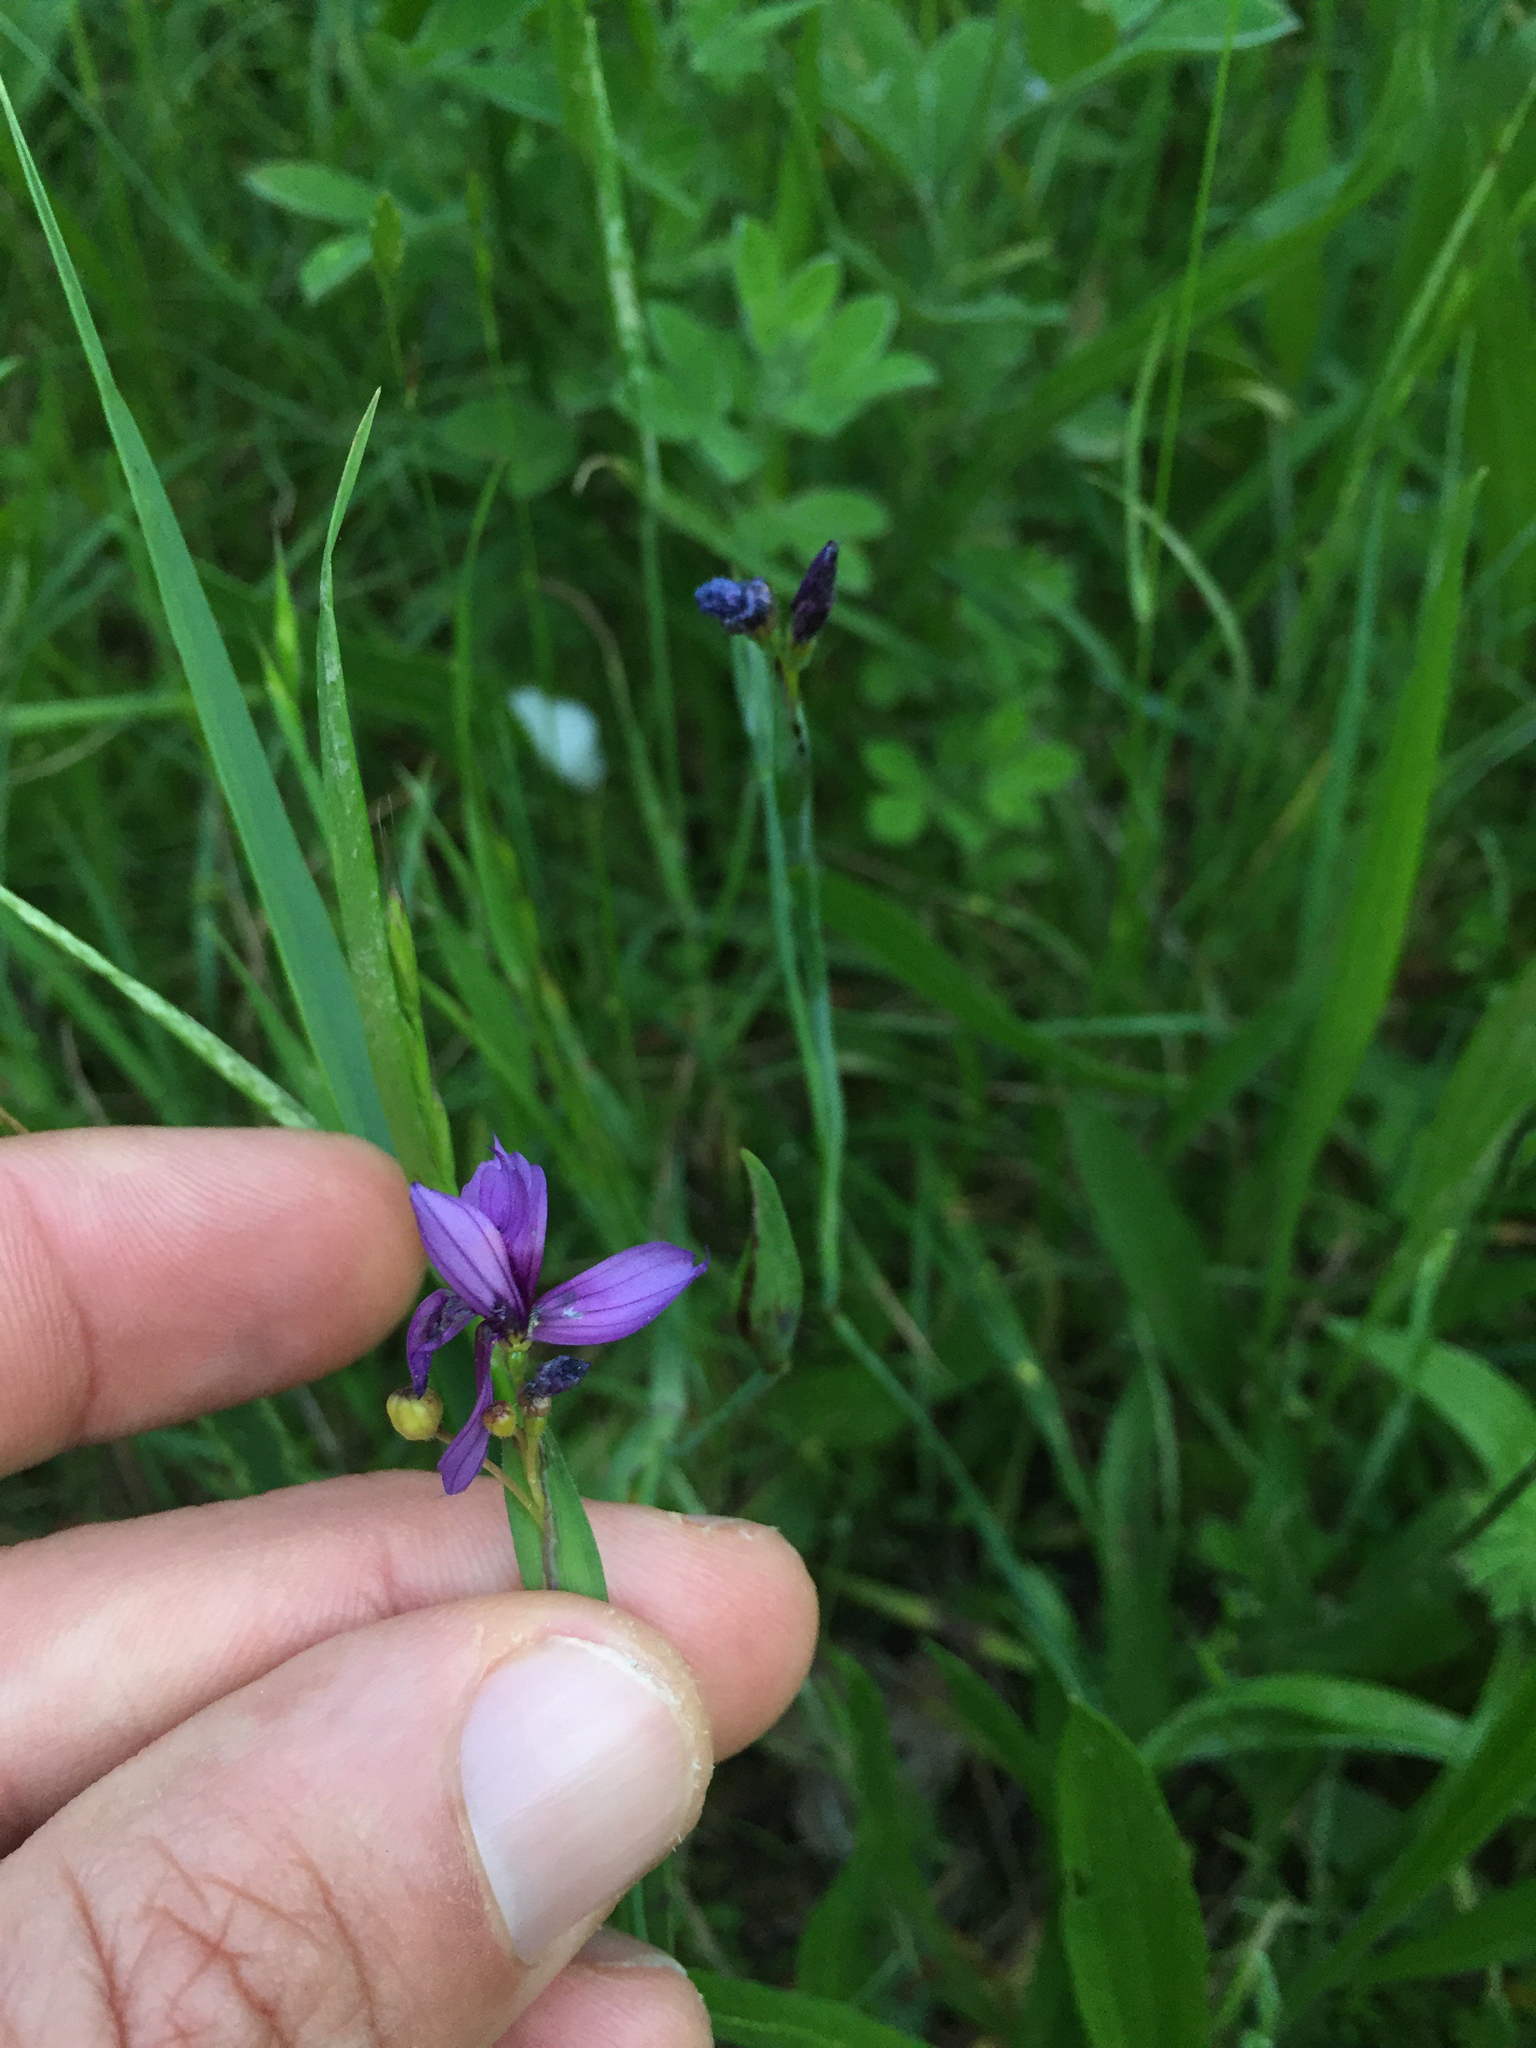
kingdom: Plantae
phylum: Tracheophyta
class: Liliopsida
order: Asparagales
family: Iridaceae
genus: Sisyrinchium
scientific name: Sisyrinchium bellum
